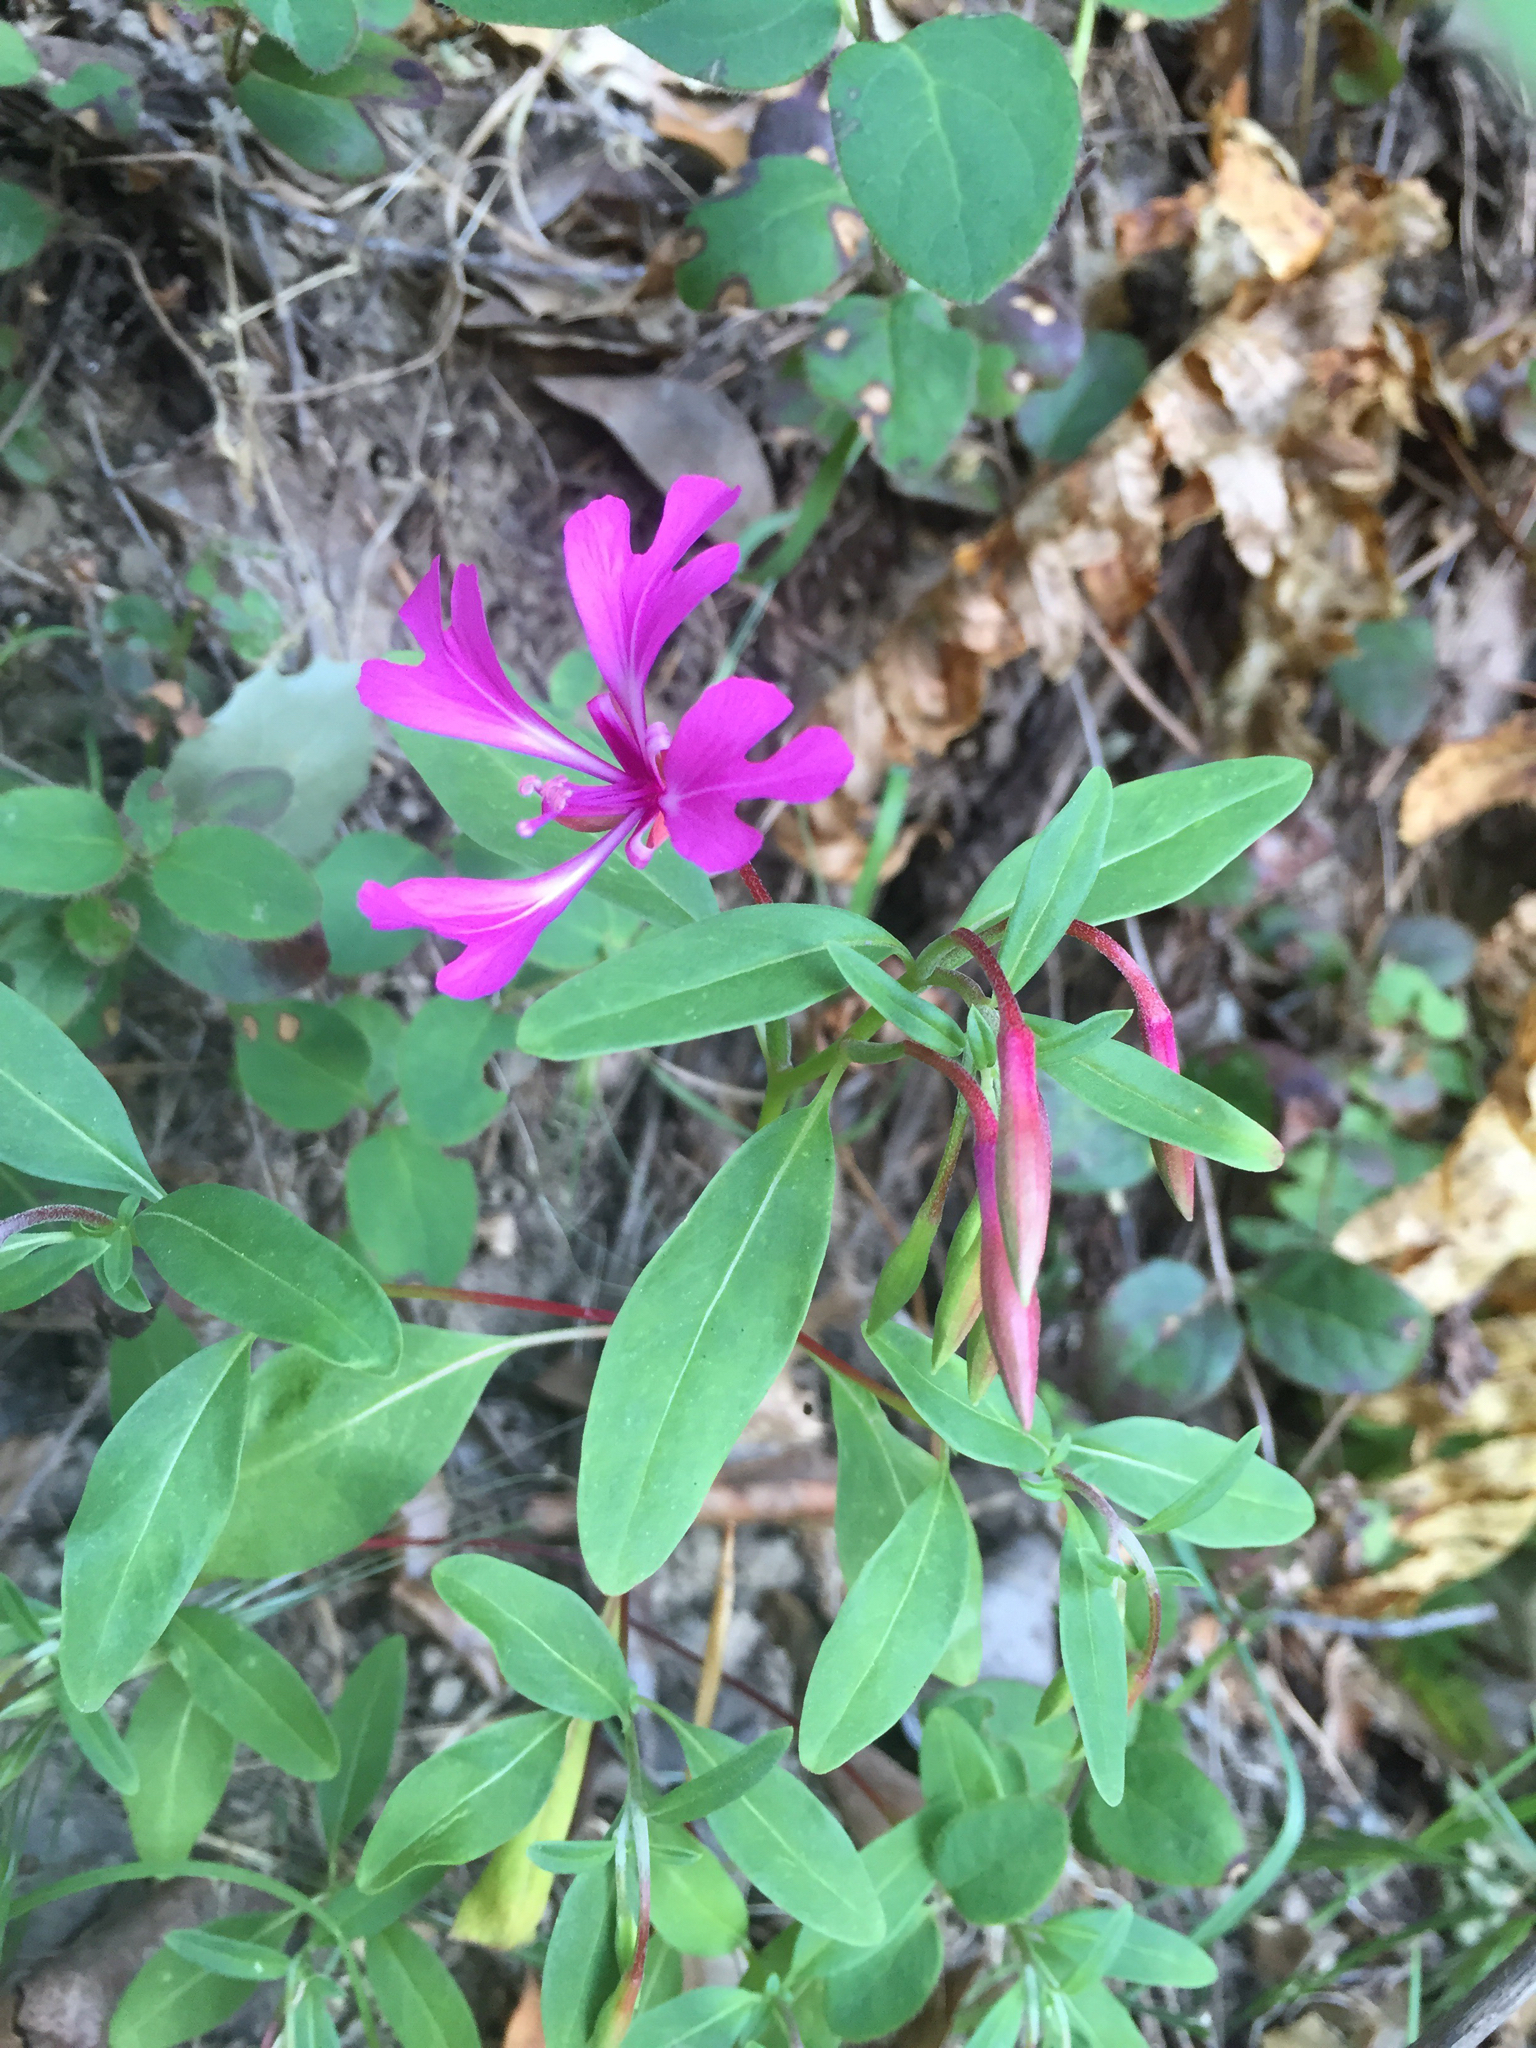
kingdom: Plantae
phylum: Tracheophyta
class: Magnoliopsida
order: Myrtales
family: Onagraceae
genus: Clarkia
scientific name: Clarkia concinna
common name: Red-ribbons
